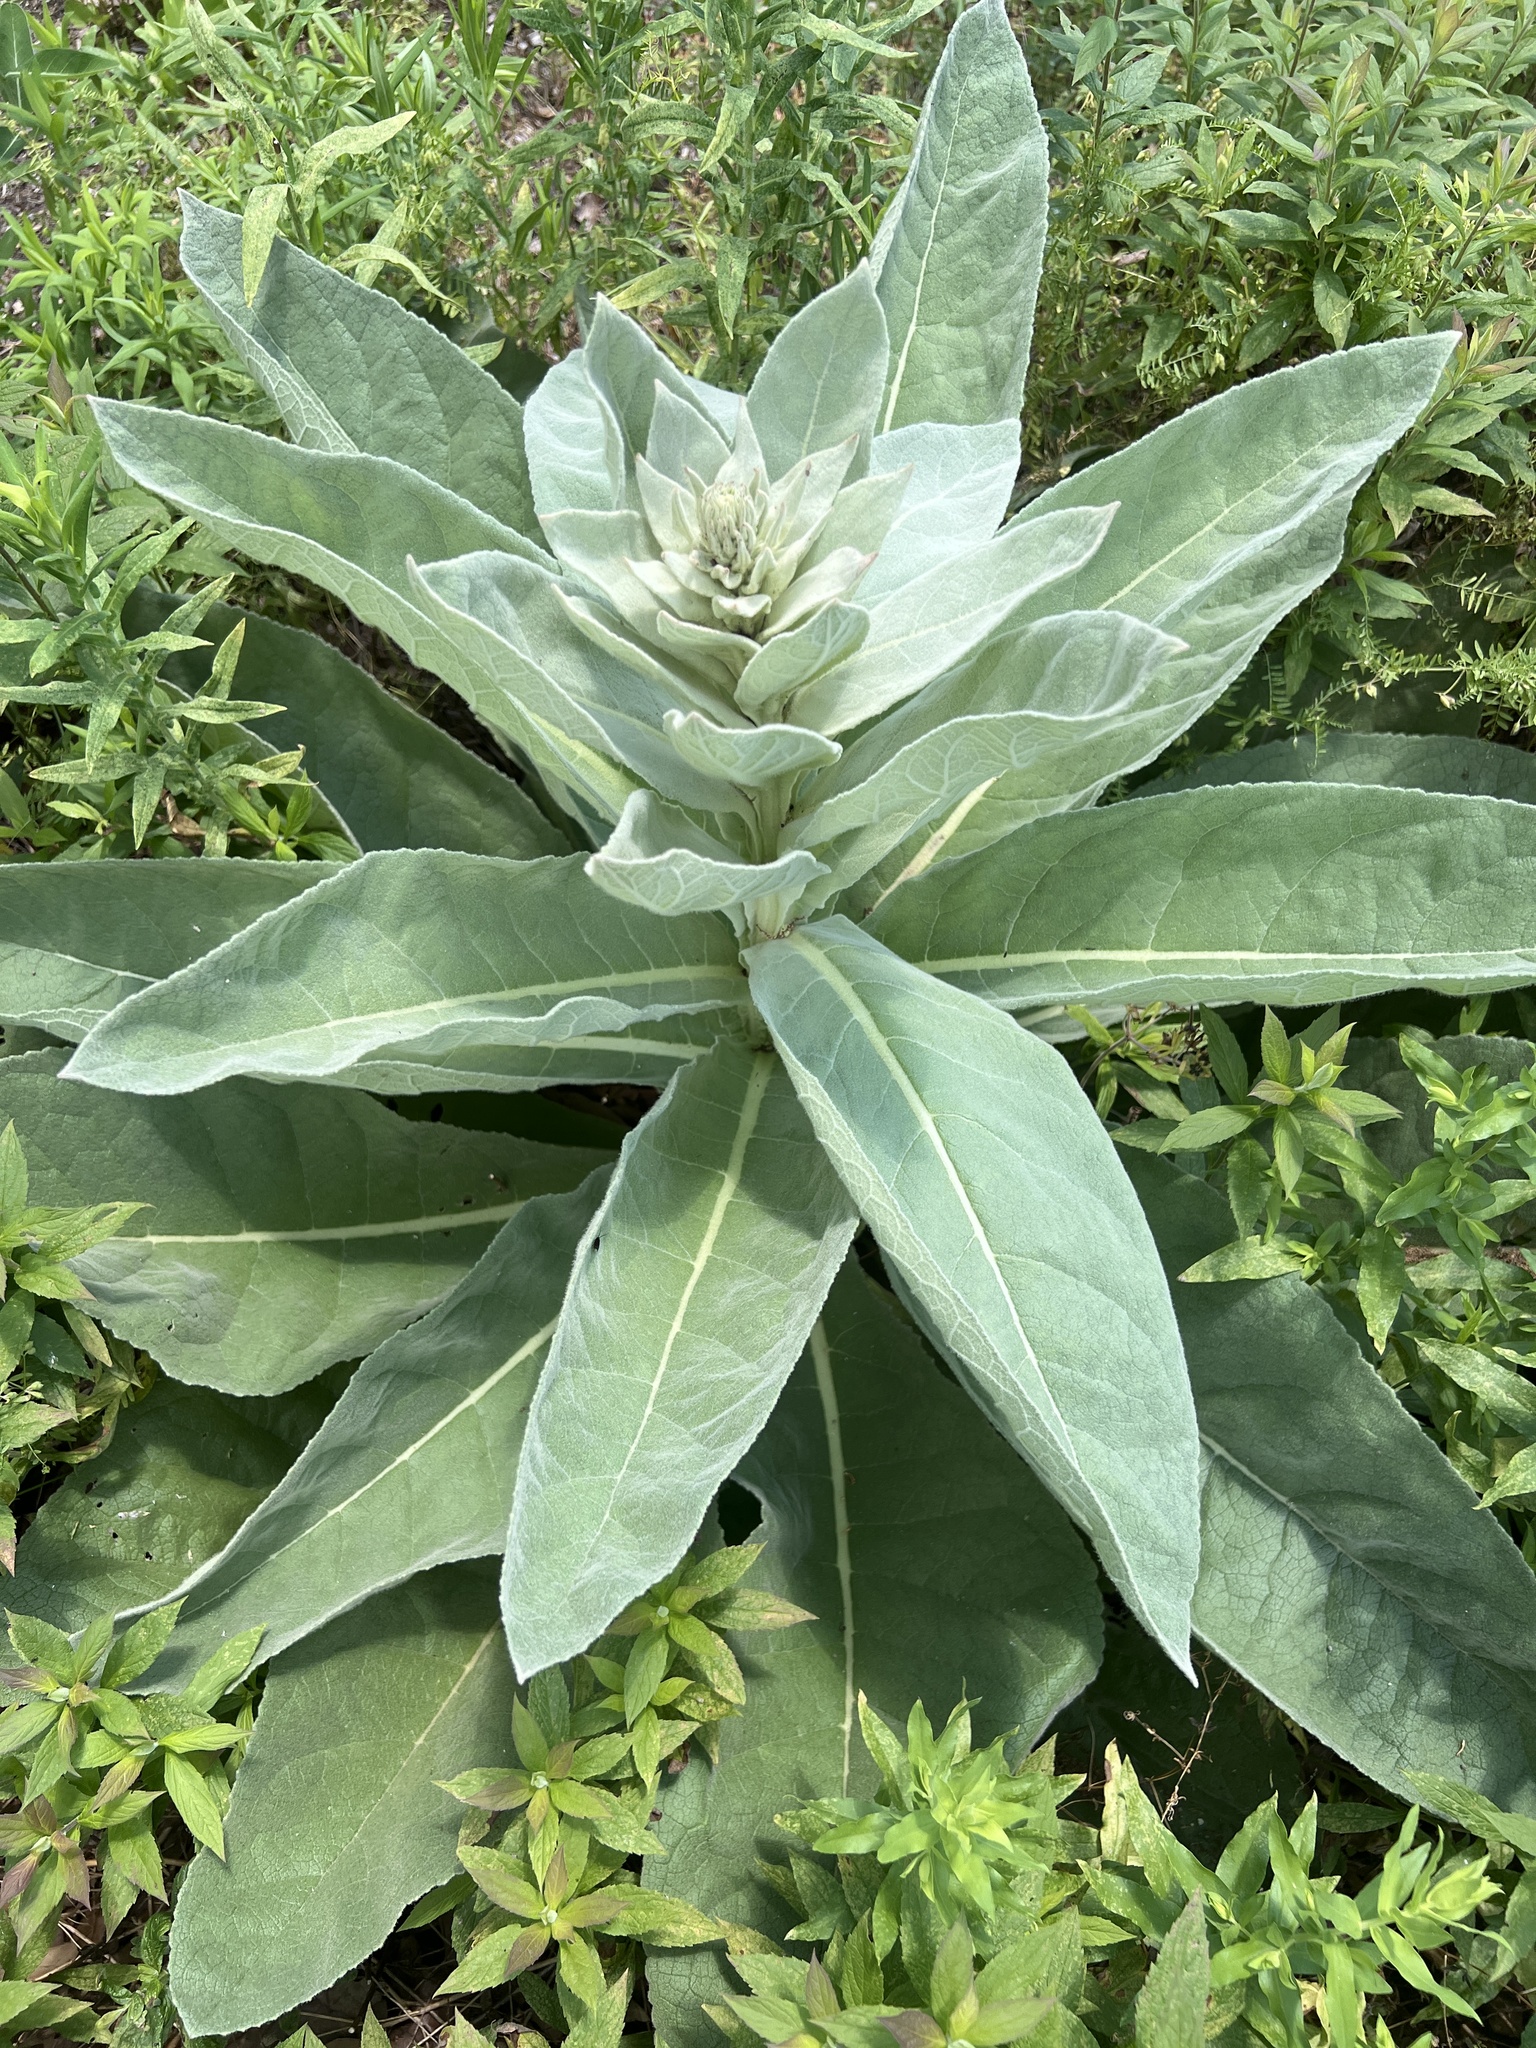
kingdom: Plantae
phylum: Tracheophyta
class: Magnoliopsida
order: Lamiales
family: Scrophulariaceae
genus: Verbascum
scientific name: Verbascum thapsus
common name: Common mullein
